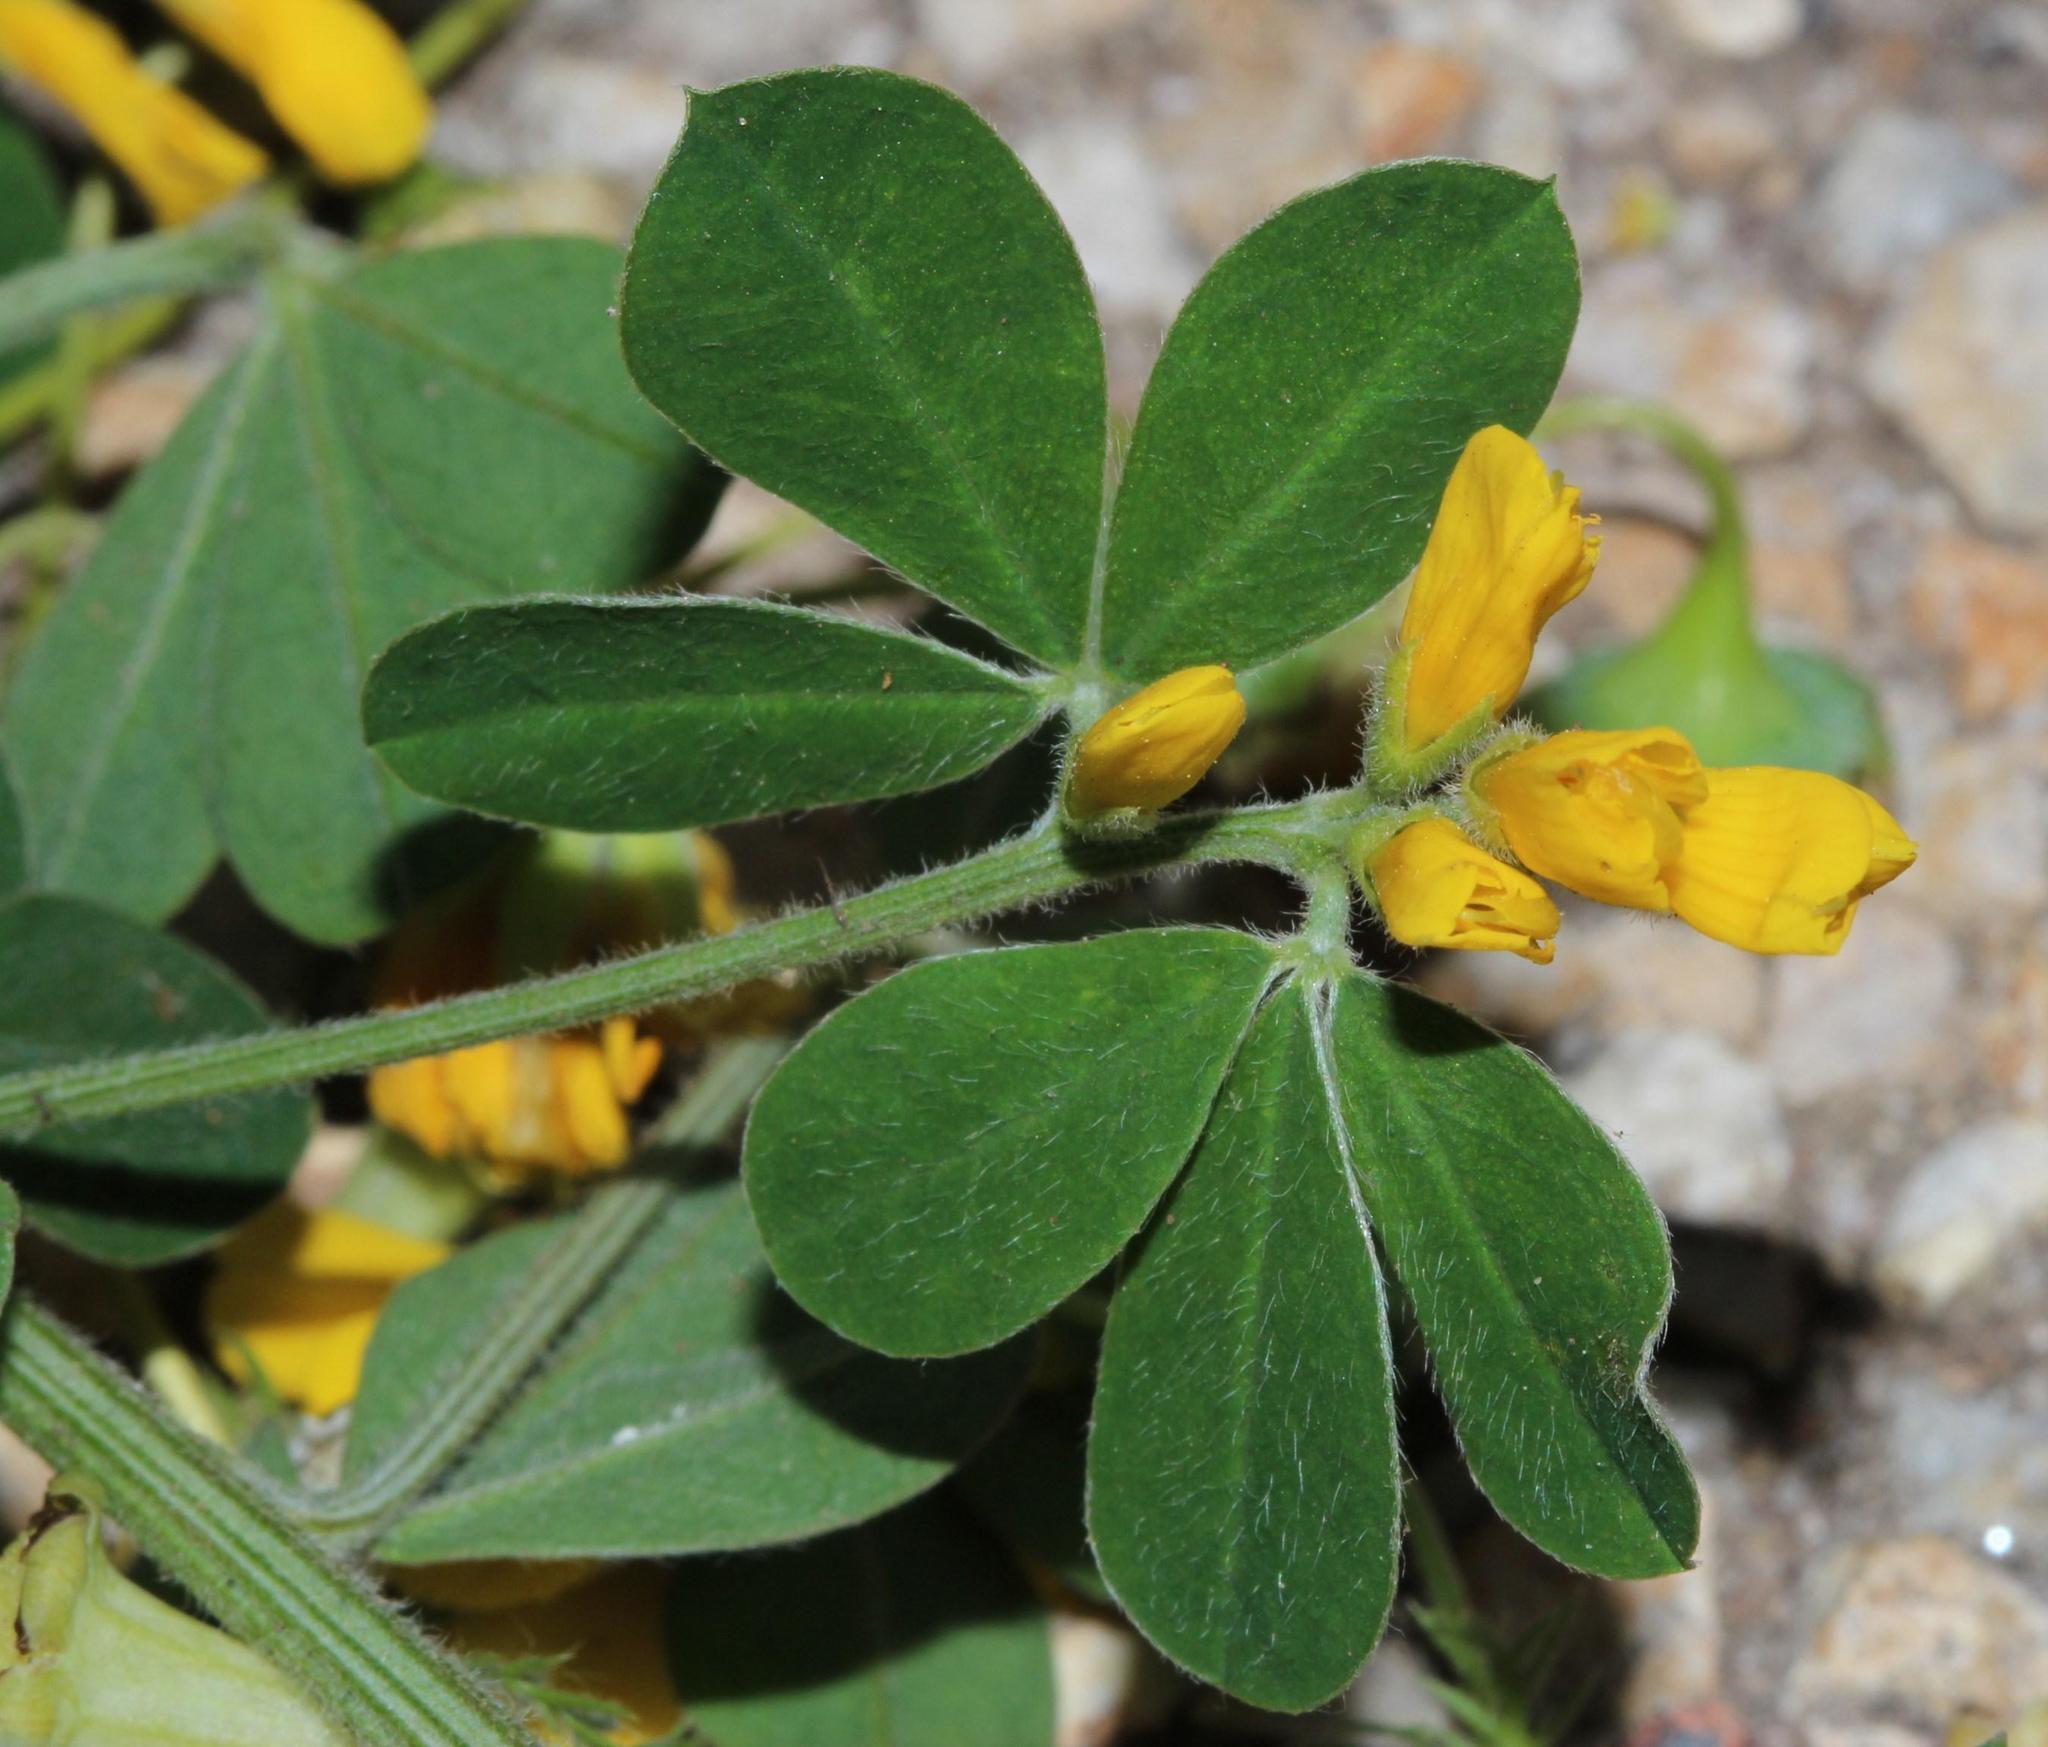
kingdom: Plantae
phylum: Tracheophyta
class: Magnoliopsida
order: Fabales
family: Fabaceae
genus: Genista
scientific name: Genista monspessulana
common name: Montpellier broom
